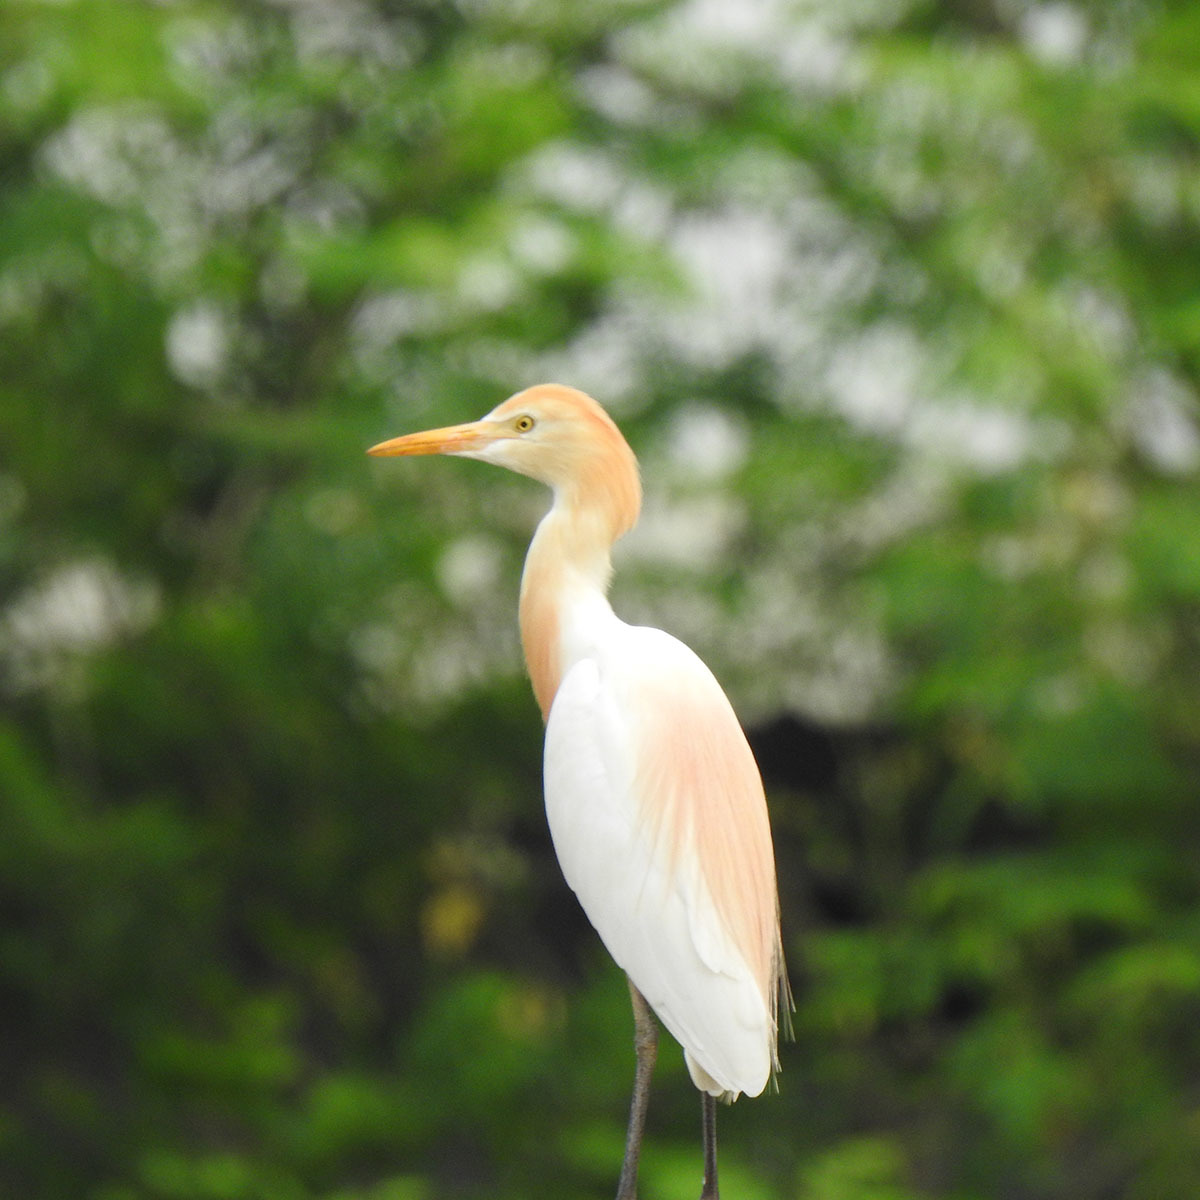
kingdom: Animalia
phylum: Chordata
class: Aves
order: Pelecaniformes
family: Ardeidae
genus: Bubulcus
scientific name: Bubulcus coromandus
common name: Eastern cattle egret
